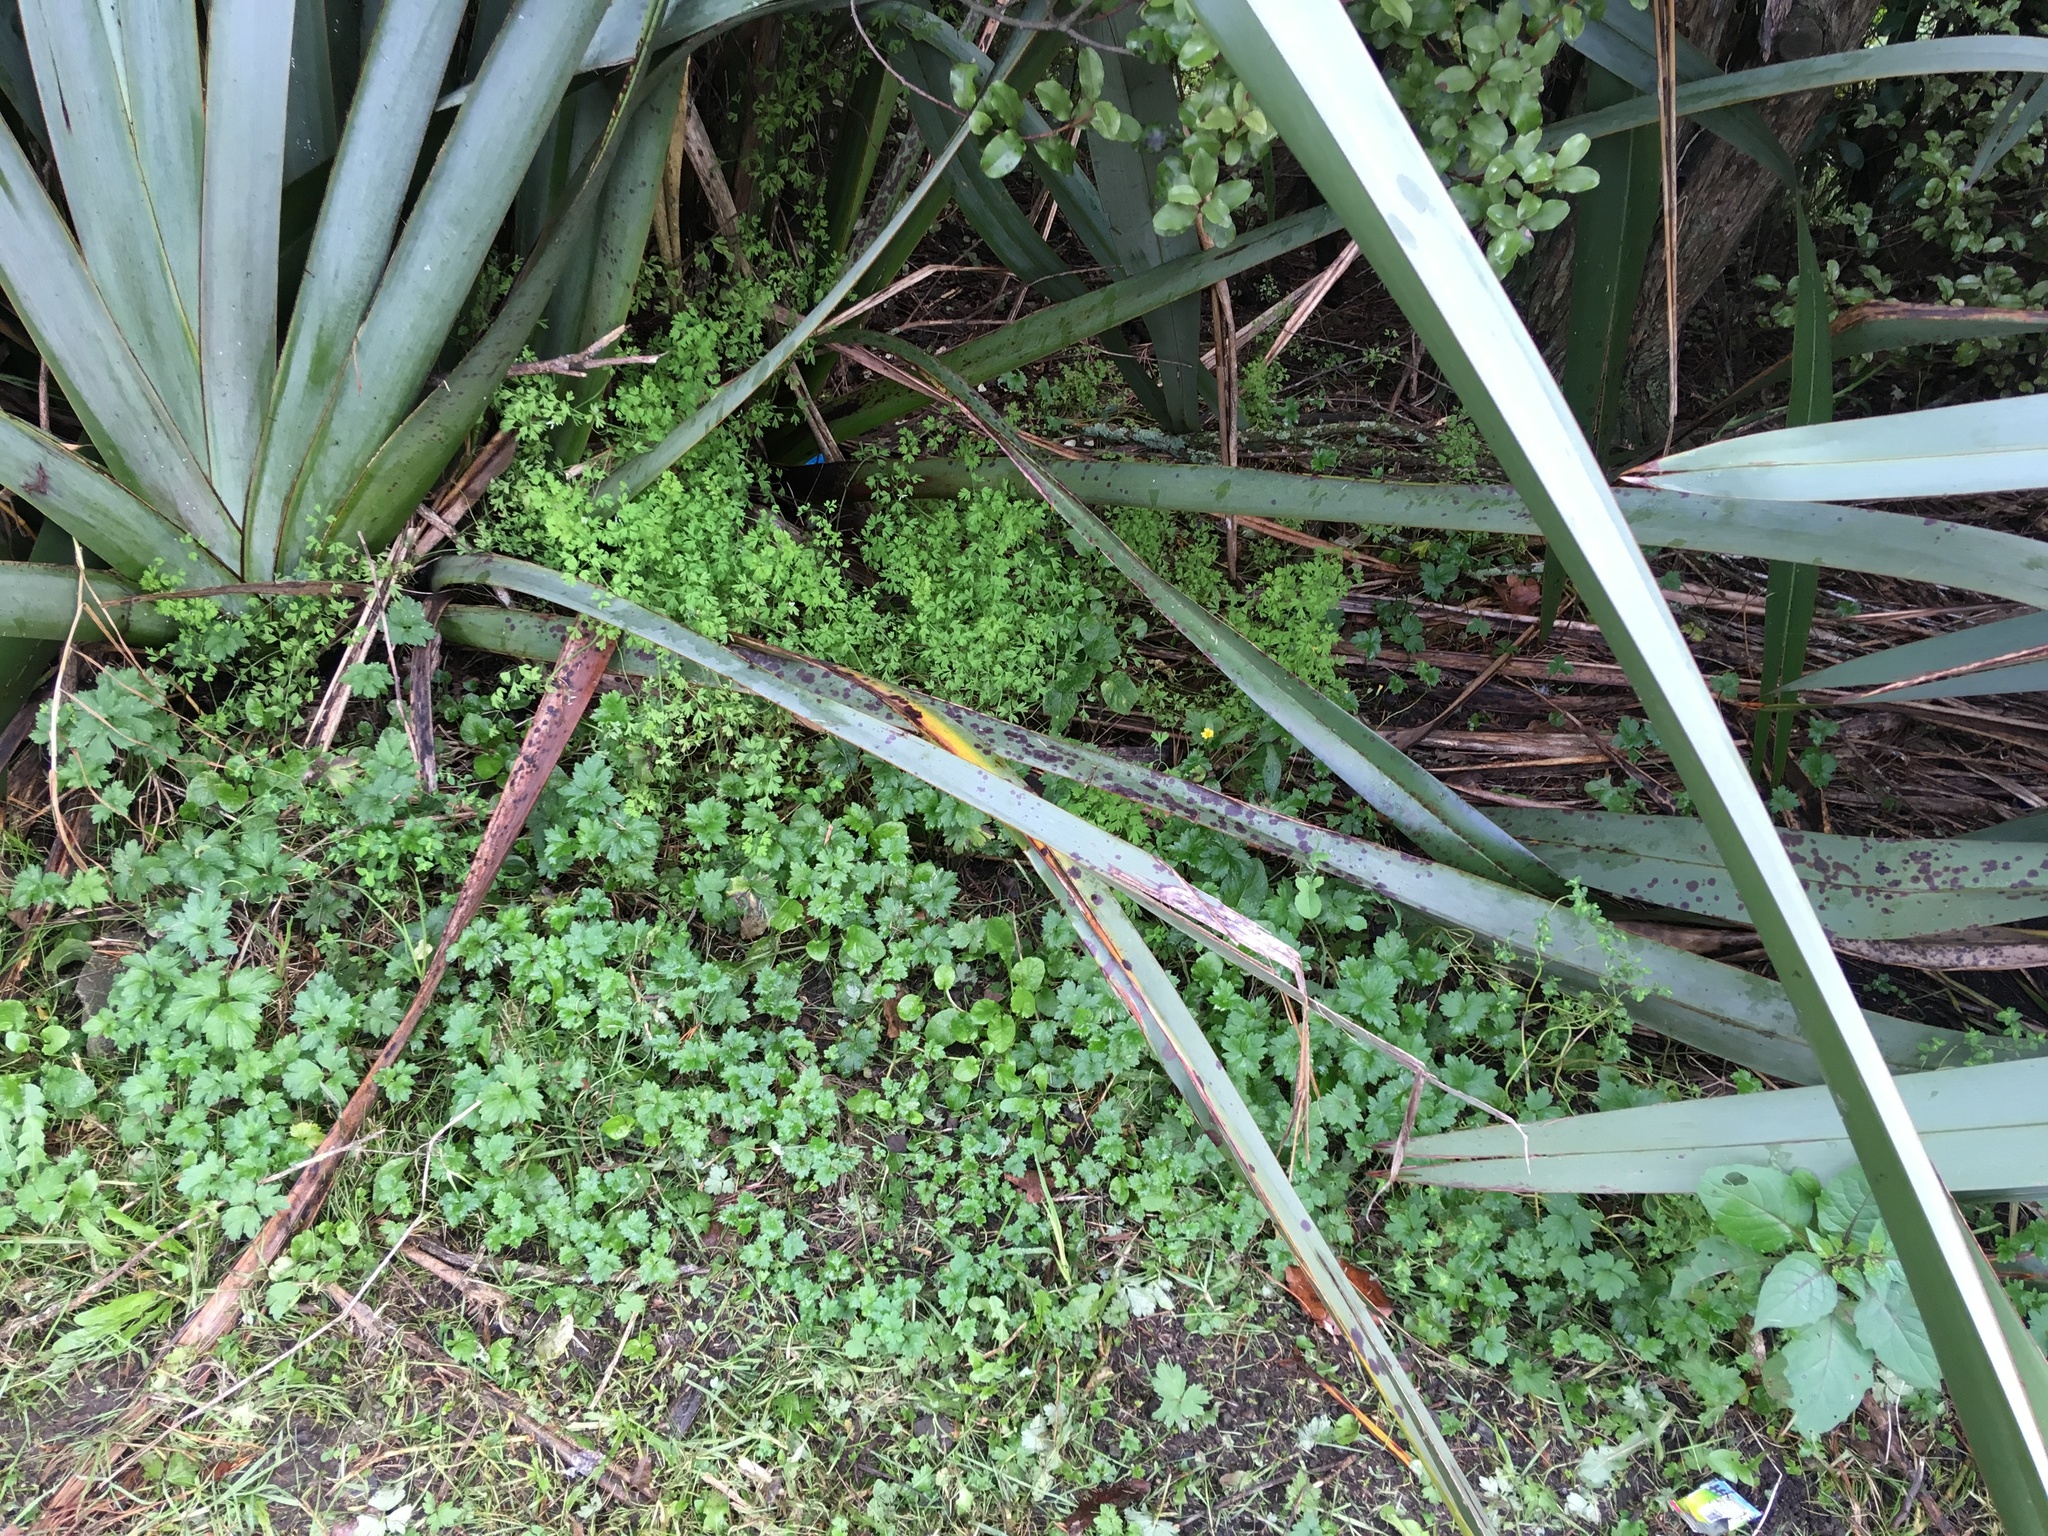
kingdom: Plantae
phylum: Tracheophyta
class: Magnoliopsida
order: Ranunculales
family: Papaveraceae
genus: Fumaria
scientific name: Fumaria muralis
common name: Common ramping-fumitory
